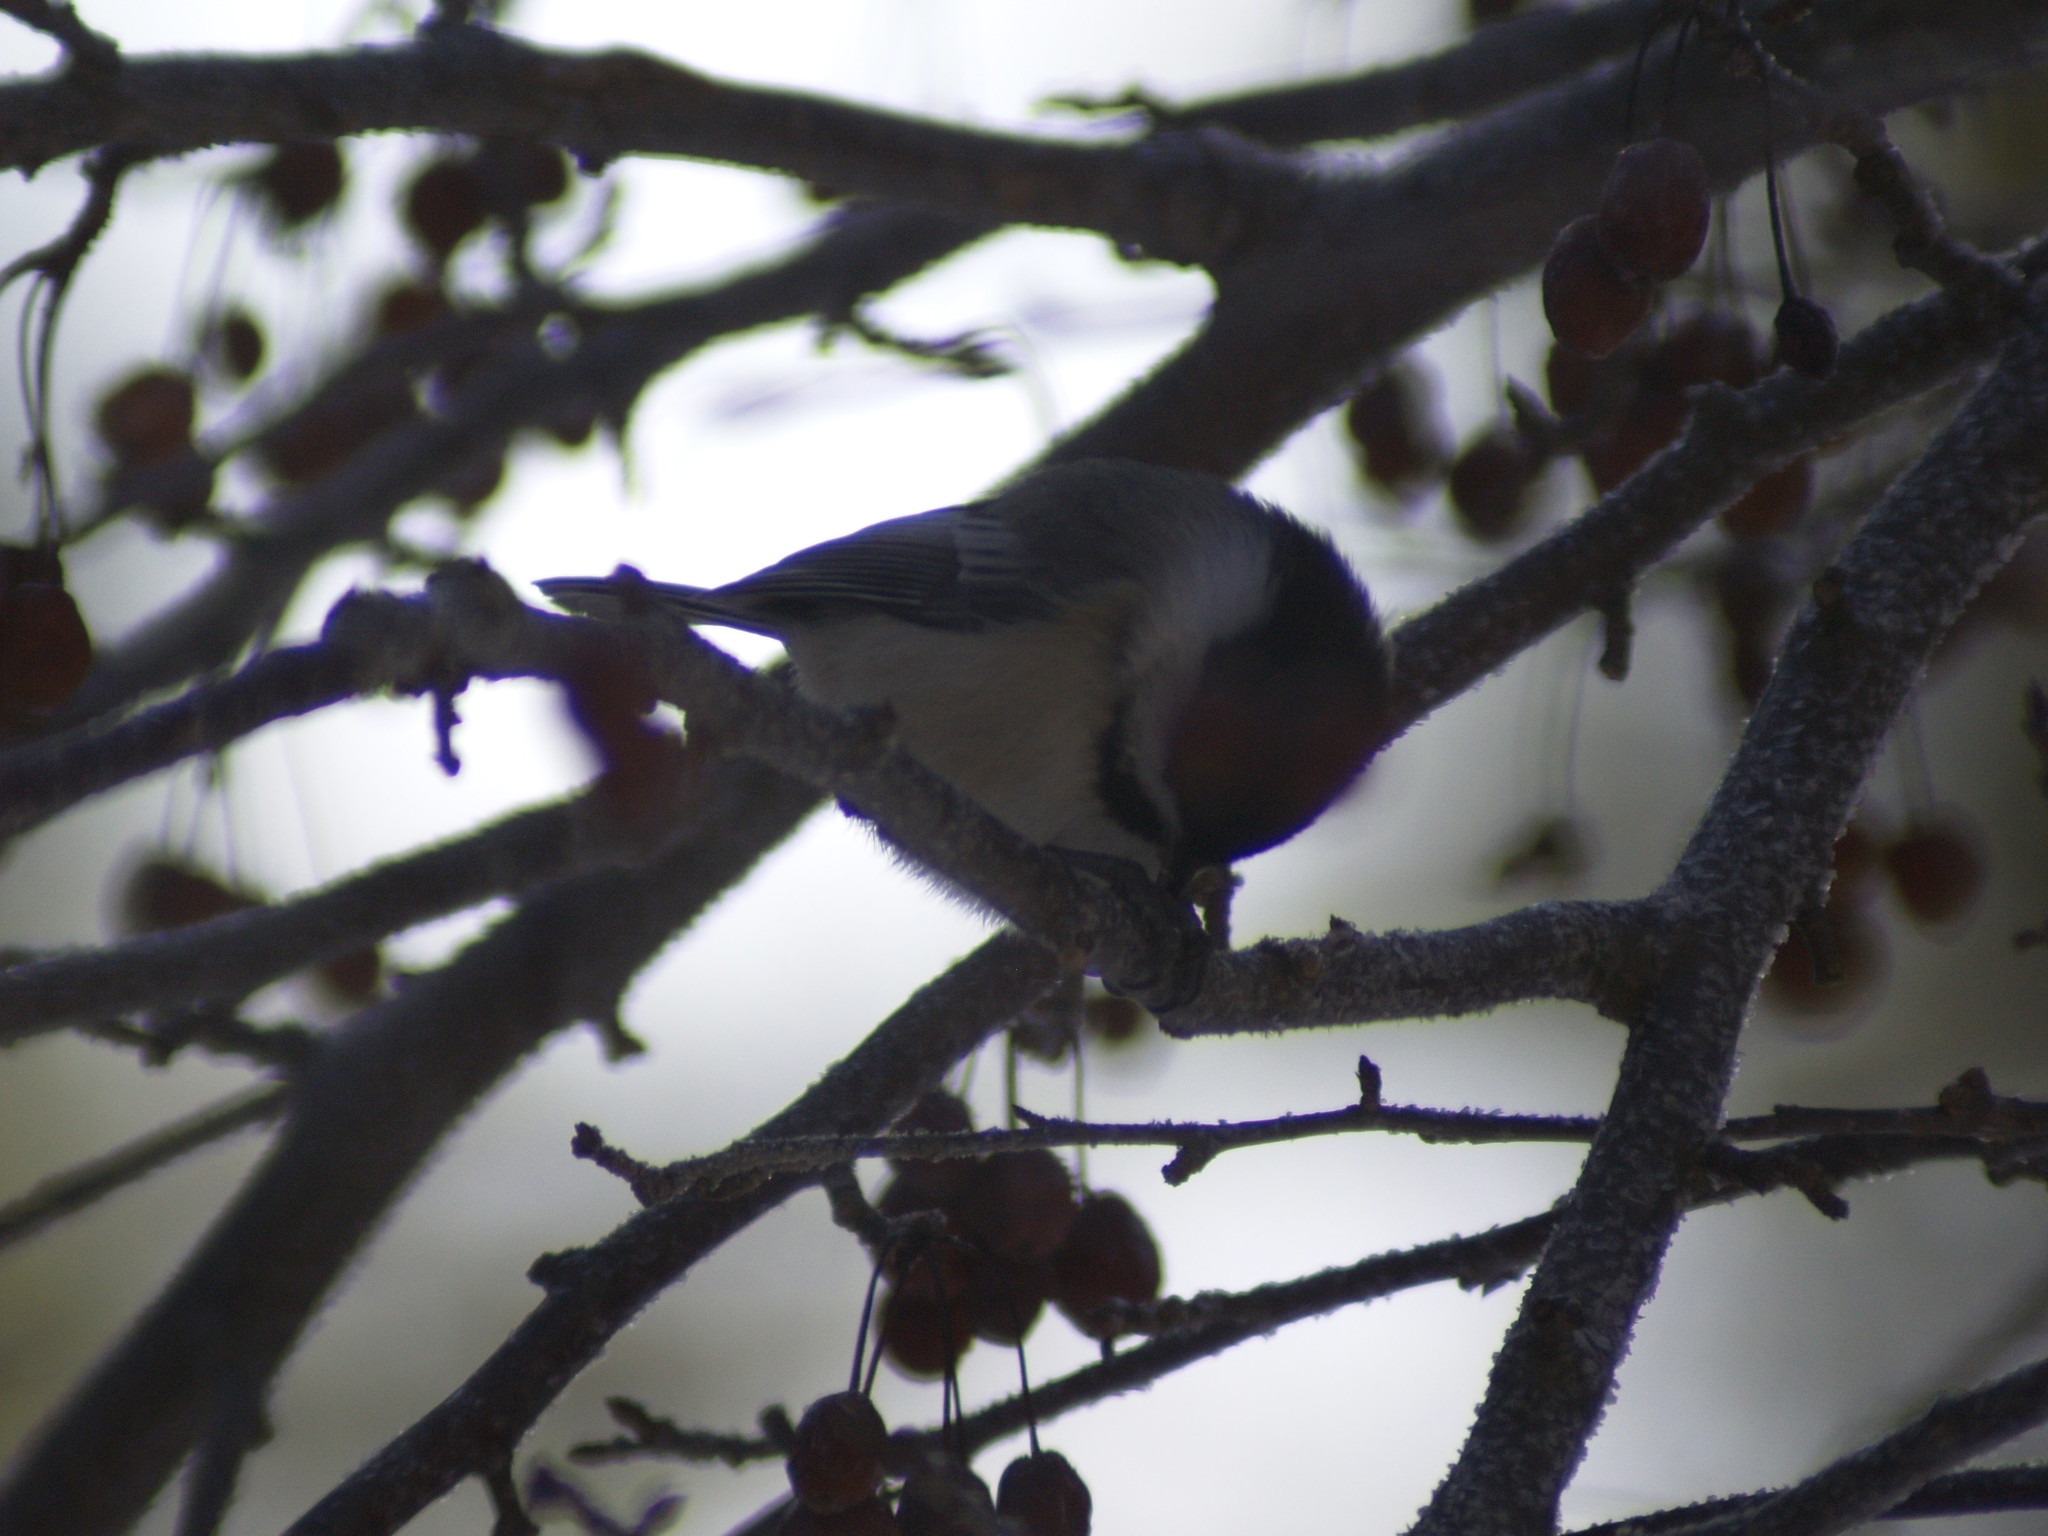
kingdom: Animalia
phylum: Chordata
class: Aves
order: Passeriformes
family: Paridae
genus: Poecile
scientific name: Poecile atricapillus
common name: Black-capped chickadee
